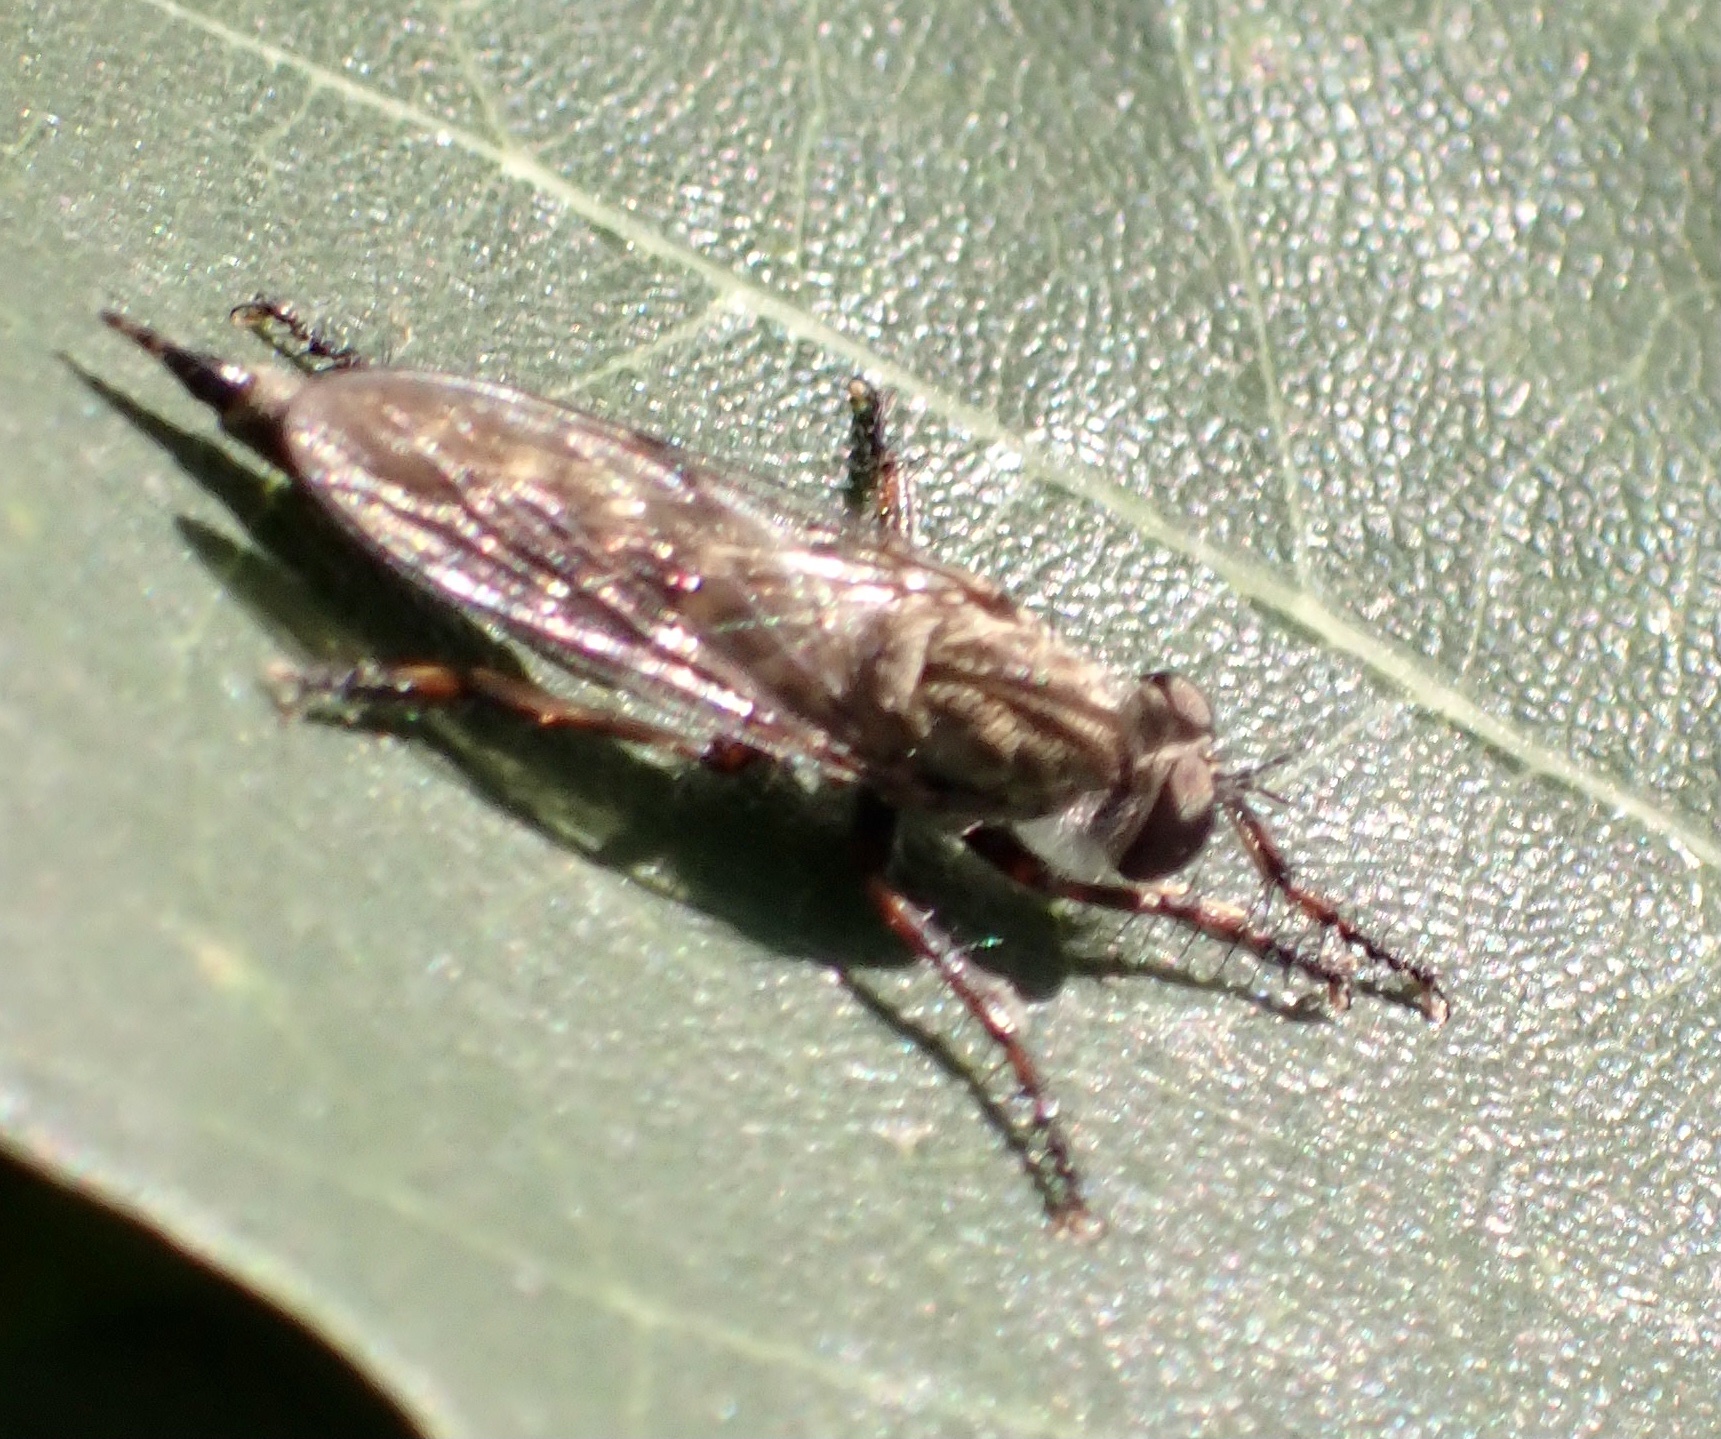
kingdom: Animalia
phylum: Arthropoda
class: Insecta
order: Diptera
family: Asilidae
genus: Machimus
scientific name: Machimus atricapillus
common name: Kite-tailed robberfly
